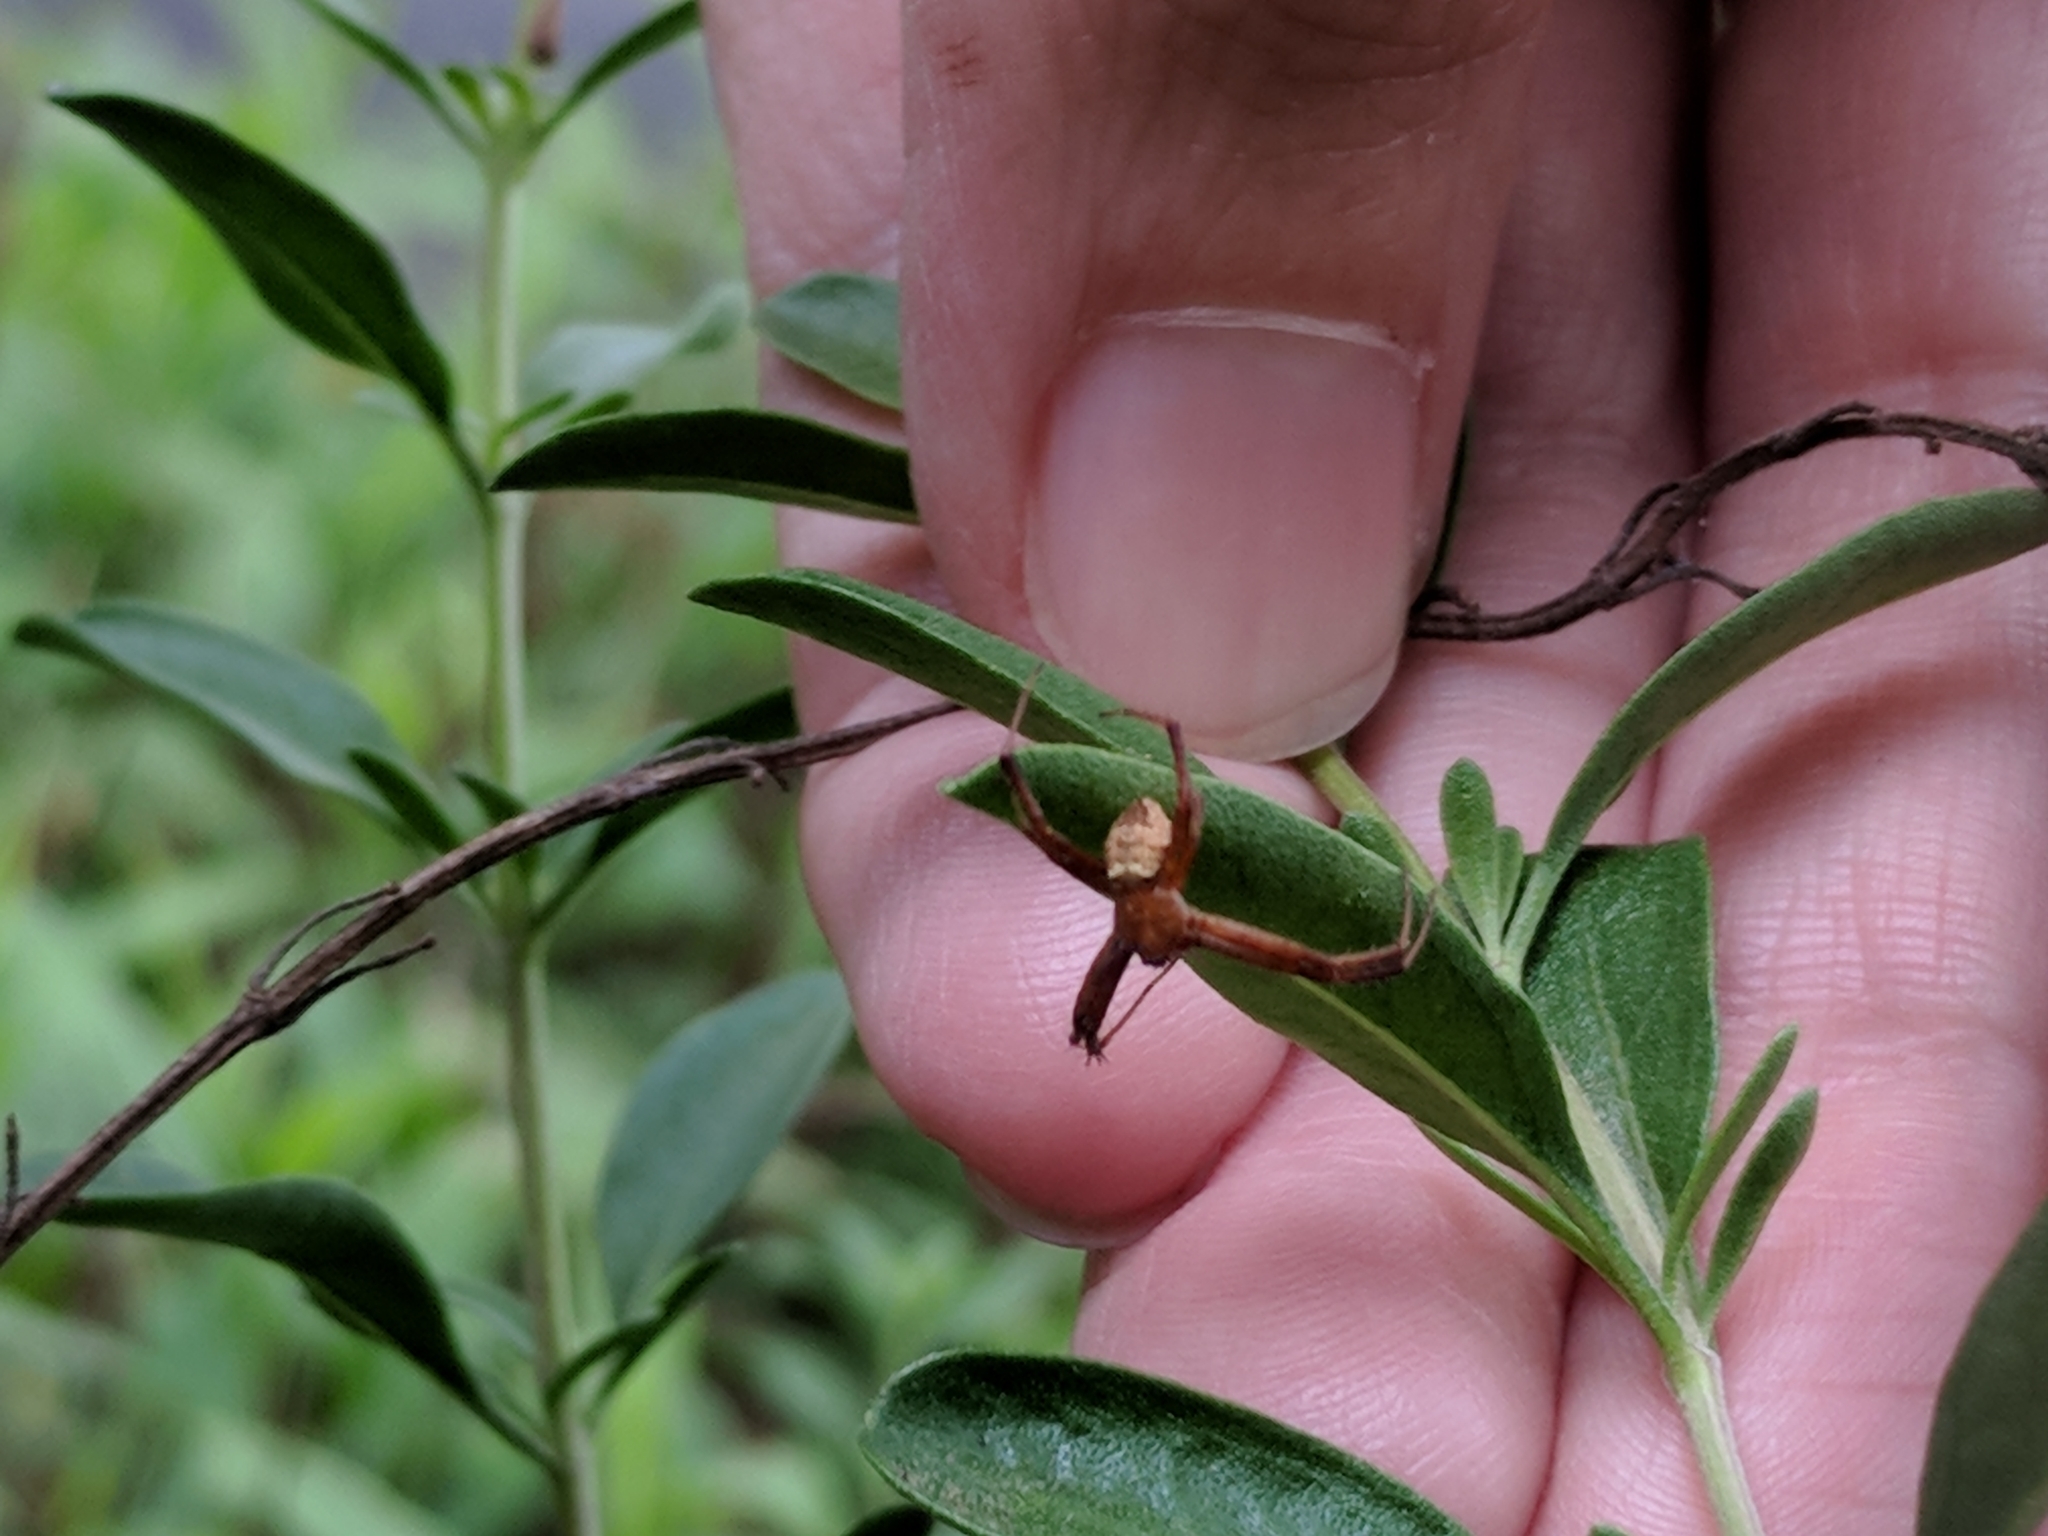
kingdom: Animalia
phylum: Arthropoda
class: Arachnida
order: Araneae
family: Araneidae
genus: Gea
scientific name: Gea heptagon
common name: Orb weavers
